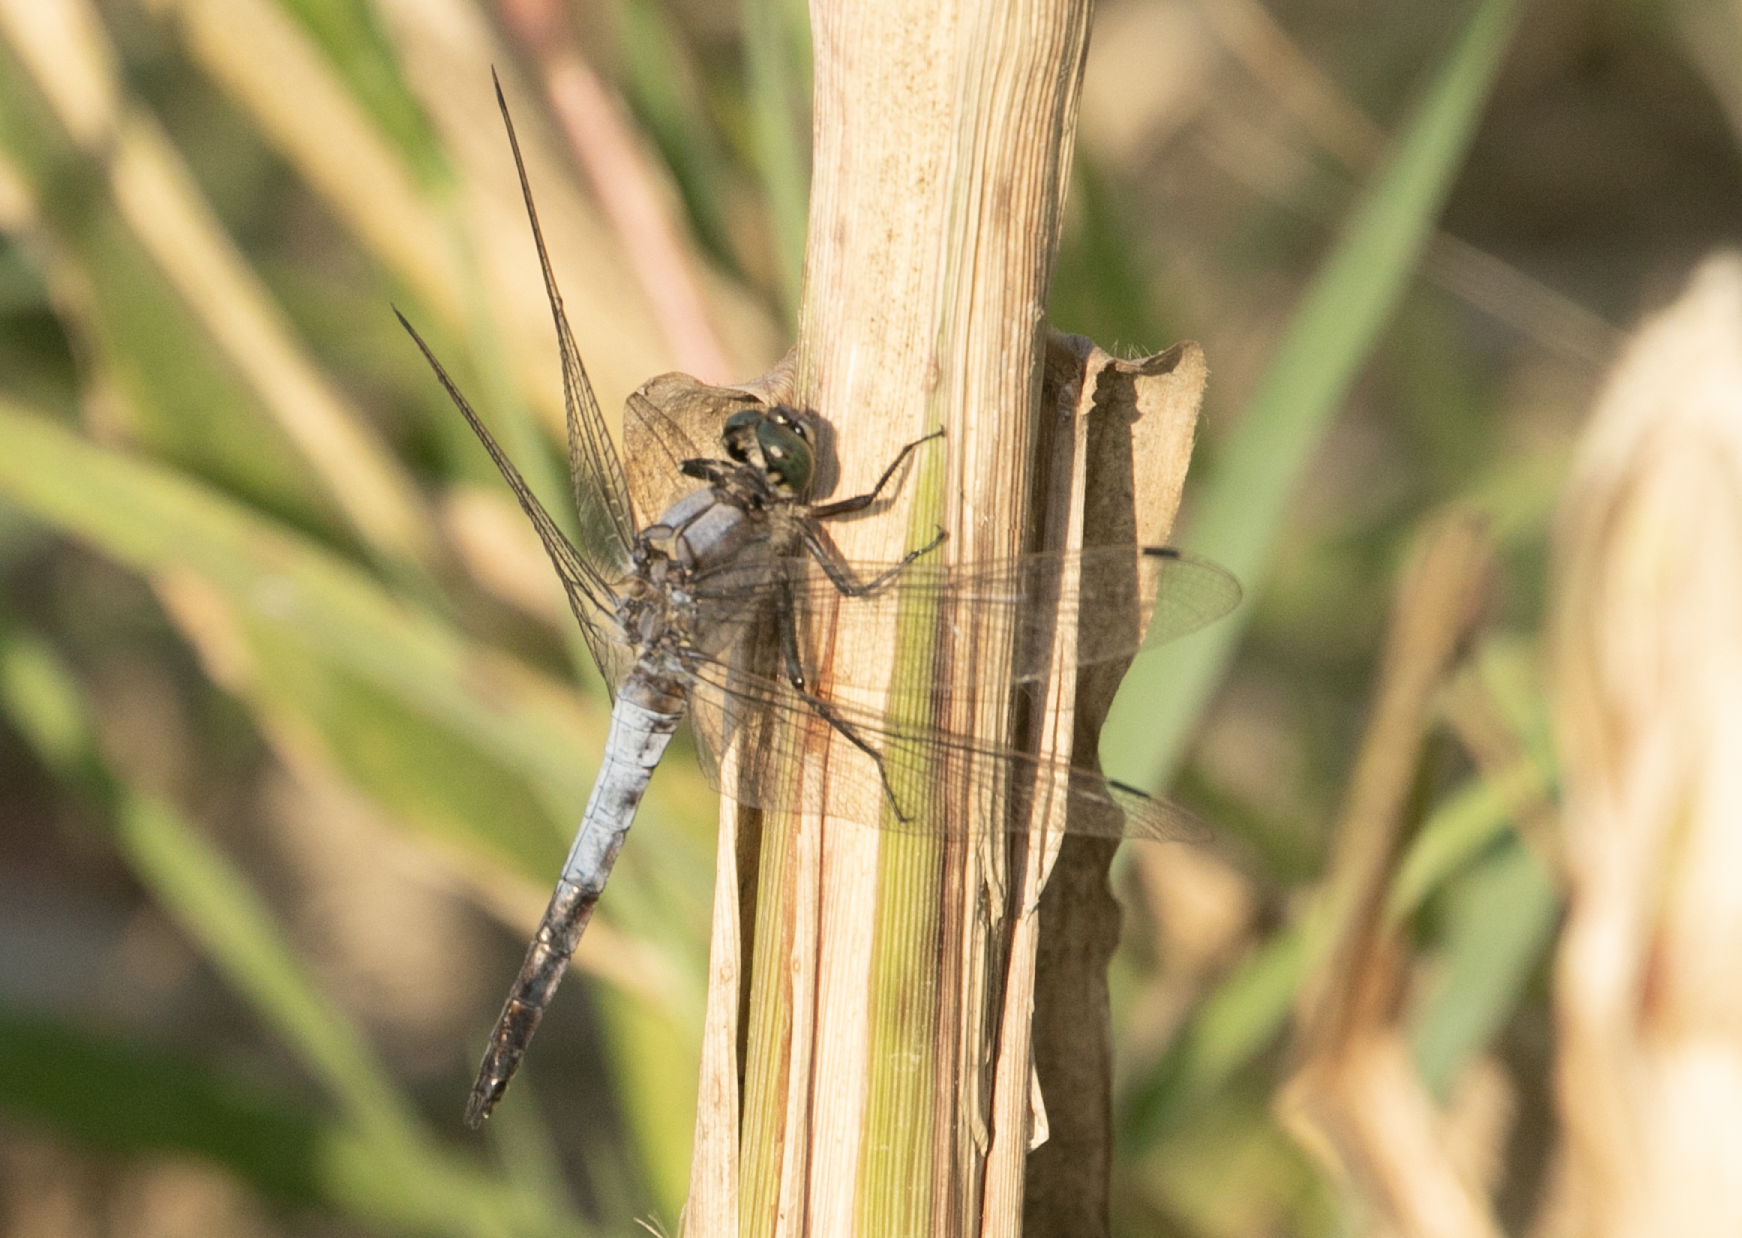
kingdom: Animalia
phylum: Arthropoda
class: Insecta
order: Odonata
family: Libellulidae
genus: Orthetrum
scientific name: Orthetrum cancellatum
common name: Black-tailed skimmer
